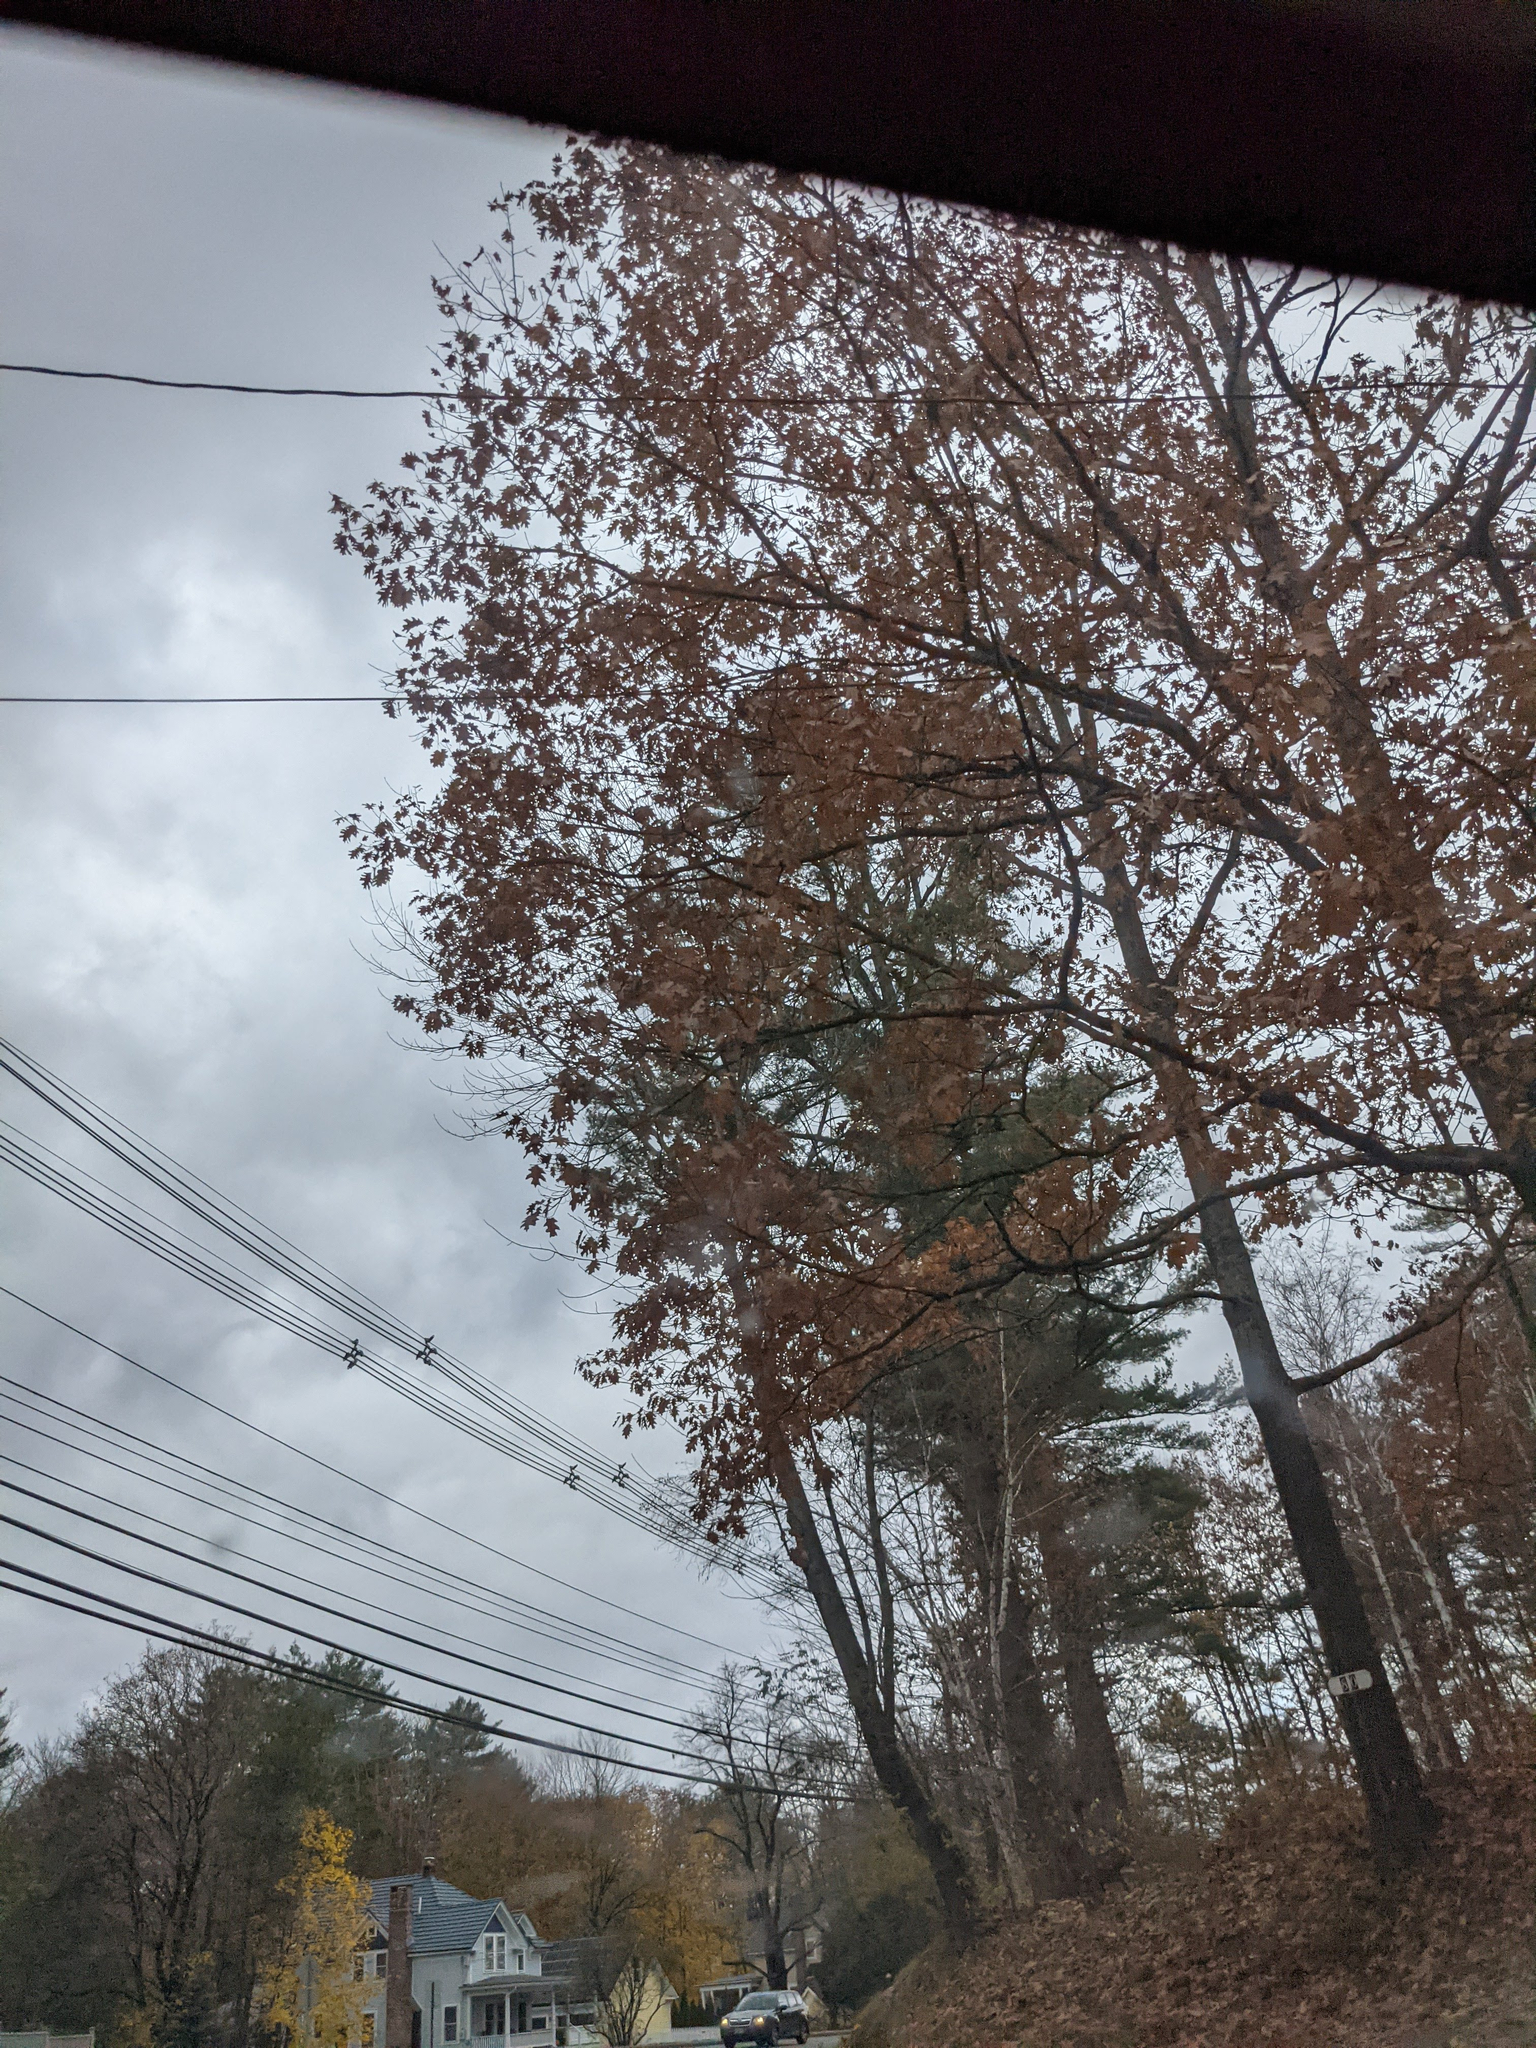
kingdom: Plantae
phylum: Tracheophyta
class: Magnoliopsida
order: Fagales
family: Fagaceae
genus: Quercus
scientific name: Quercus rubra
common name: Red oak
